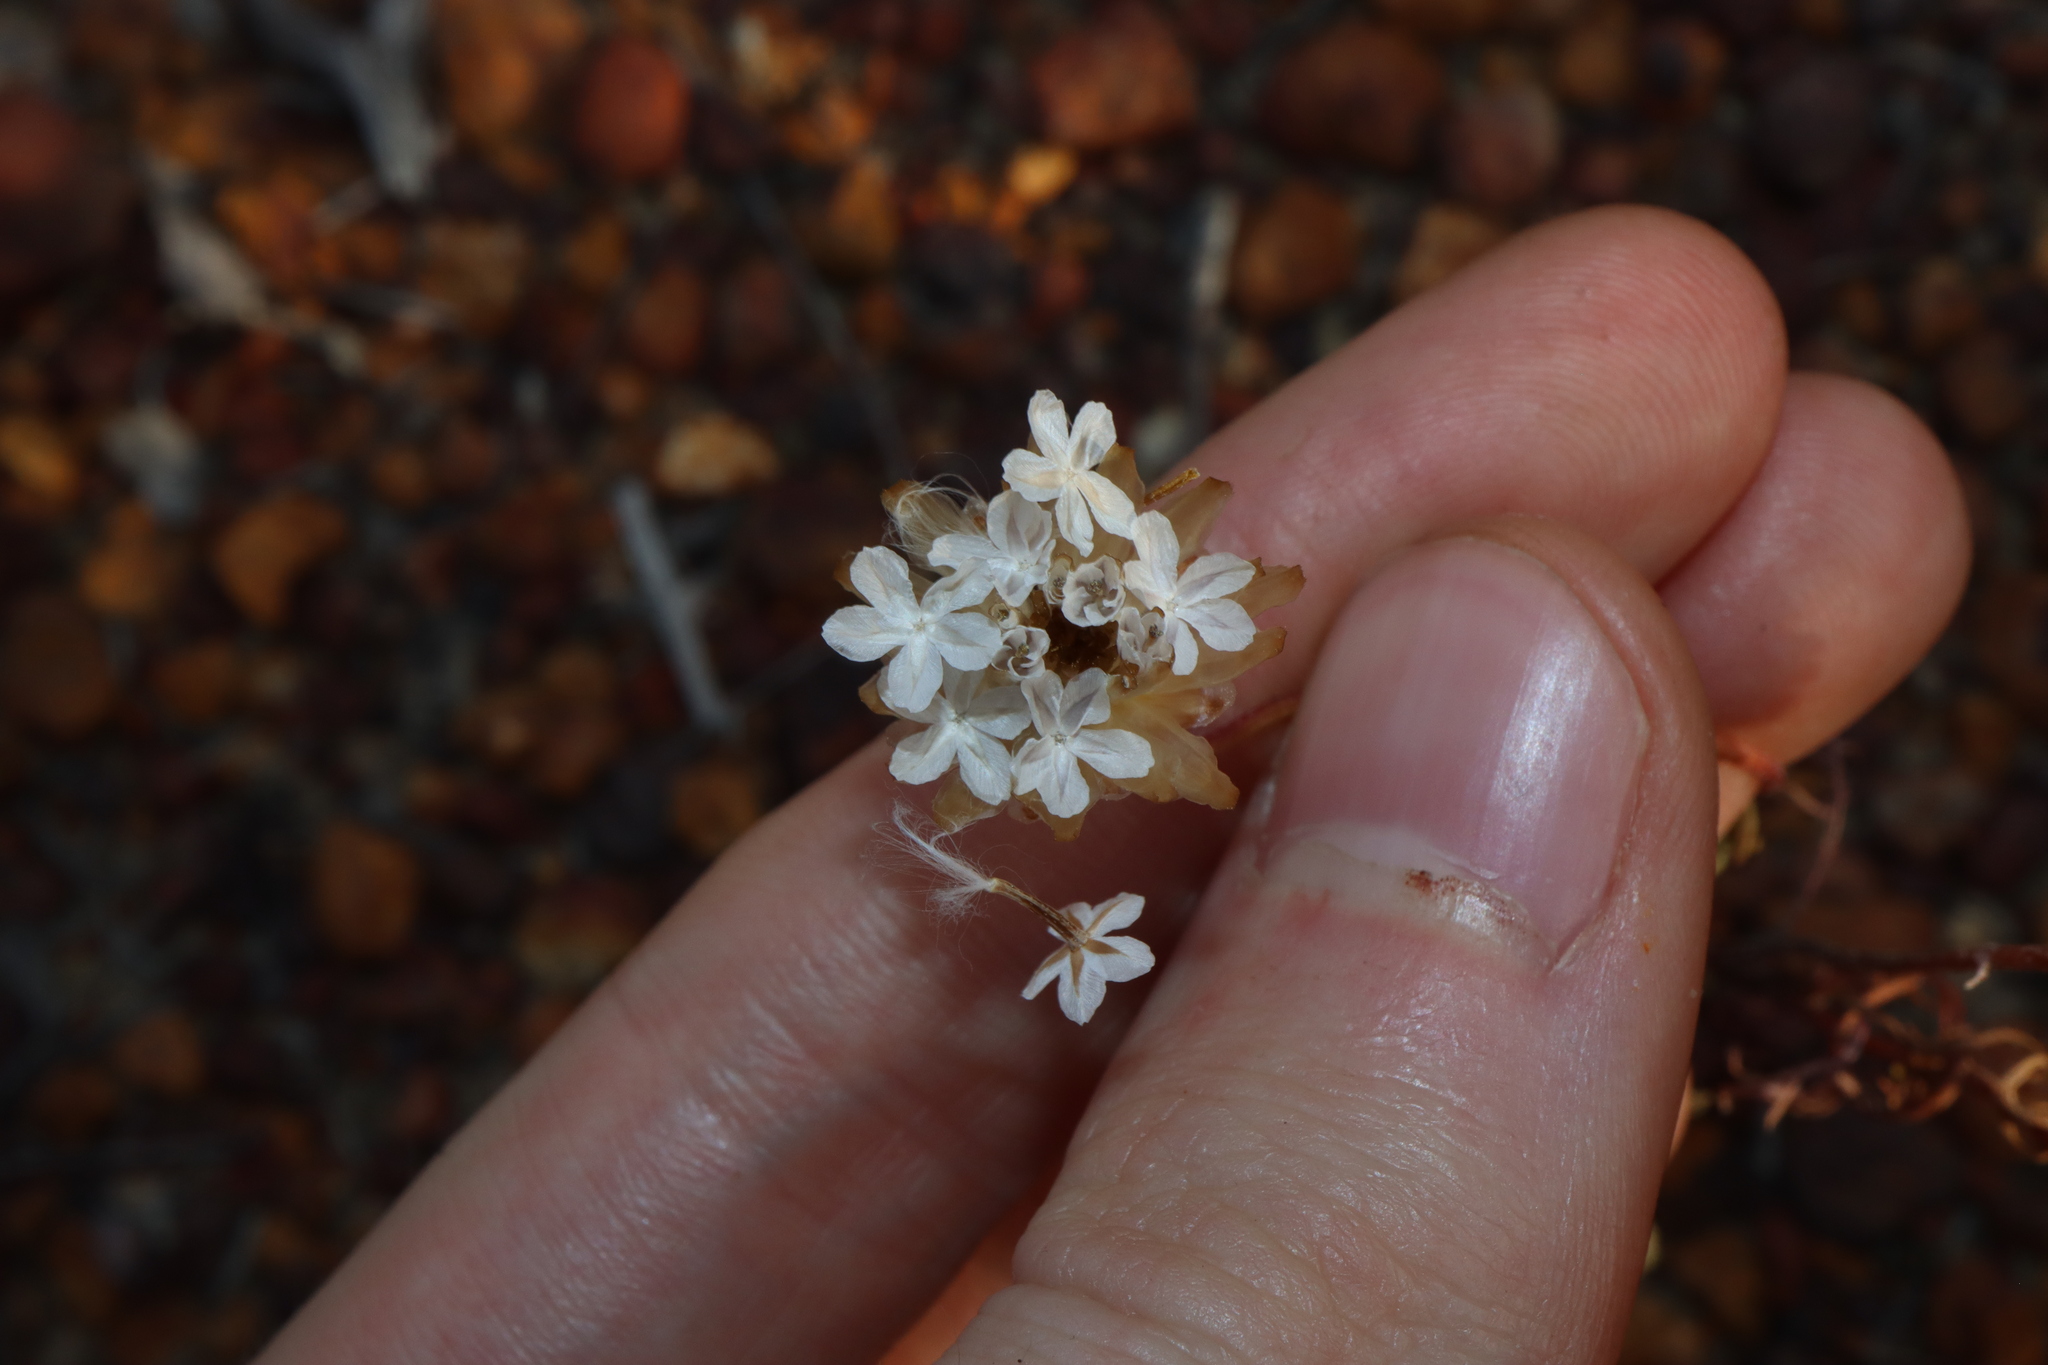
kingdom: Plantae
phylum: Tracheophyta
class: Magnoliopsida
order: Asterales
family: Asteraceae
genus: Ursinia
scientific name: Ursinia anthemoides
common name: Ursinia
